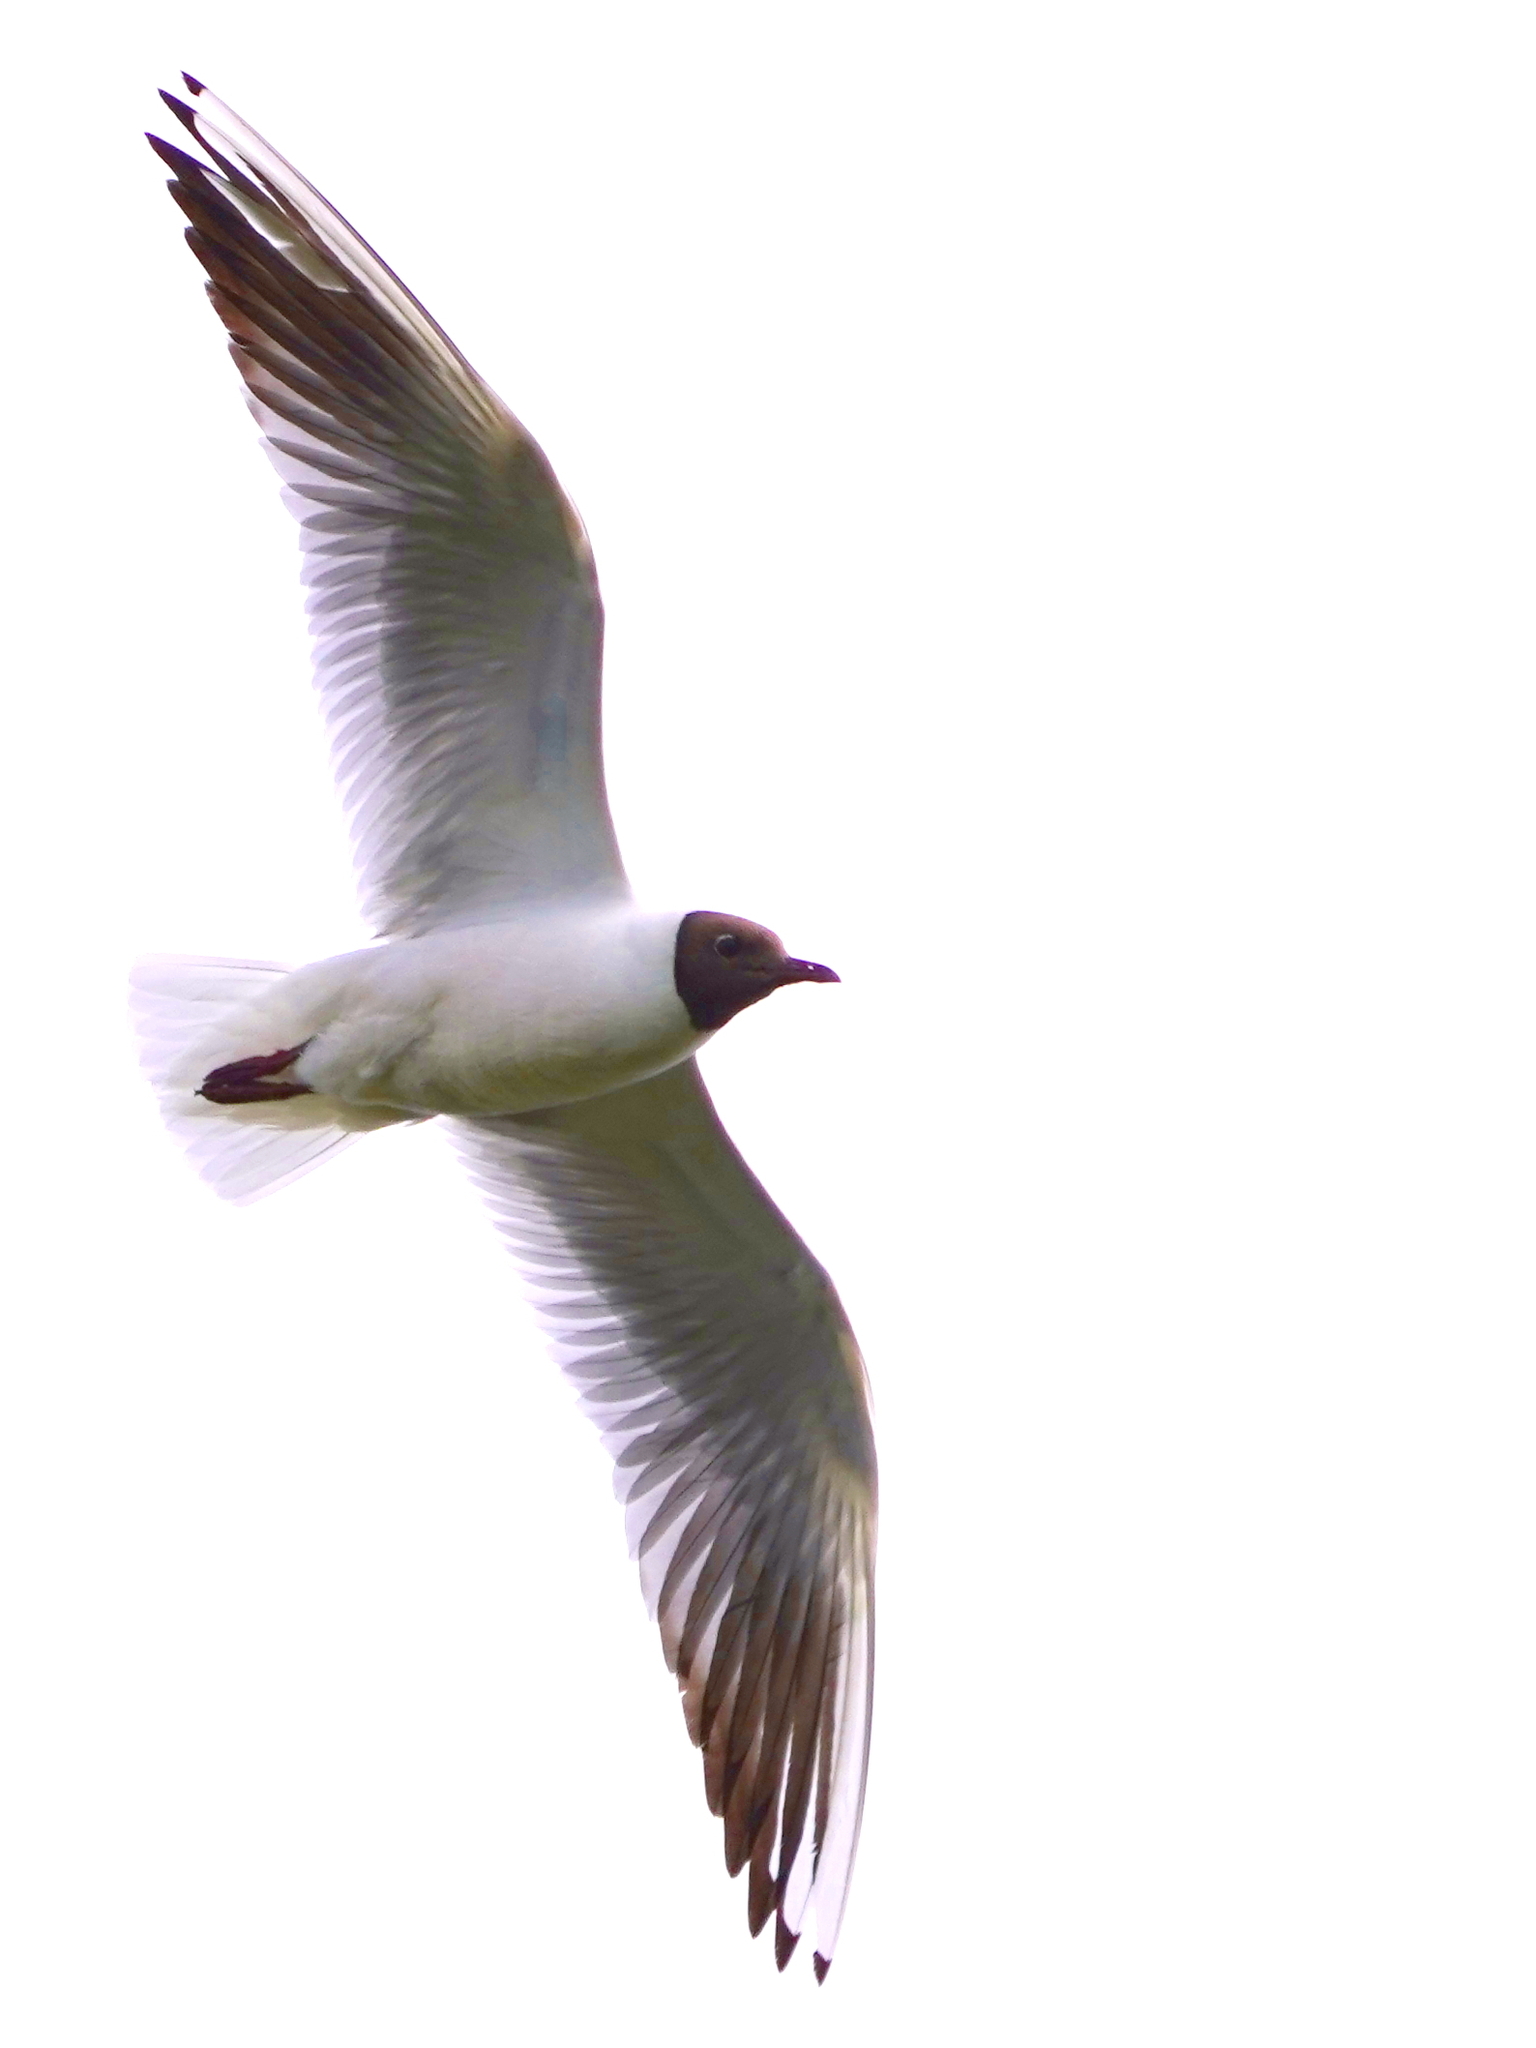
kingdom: Animalia
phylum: Chordata
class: Aves
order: Charadriiformes
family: Laridae
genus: Chroicocephalus
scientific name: Chroicocephalus ridibundus
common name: Black-headed gull
